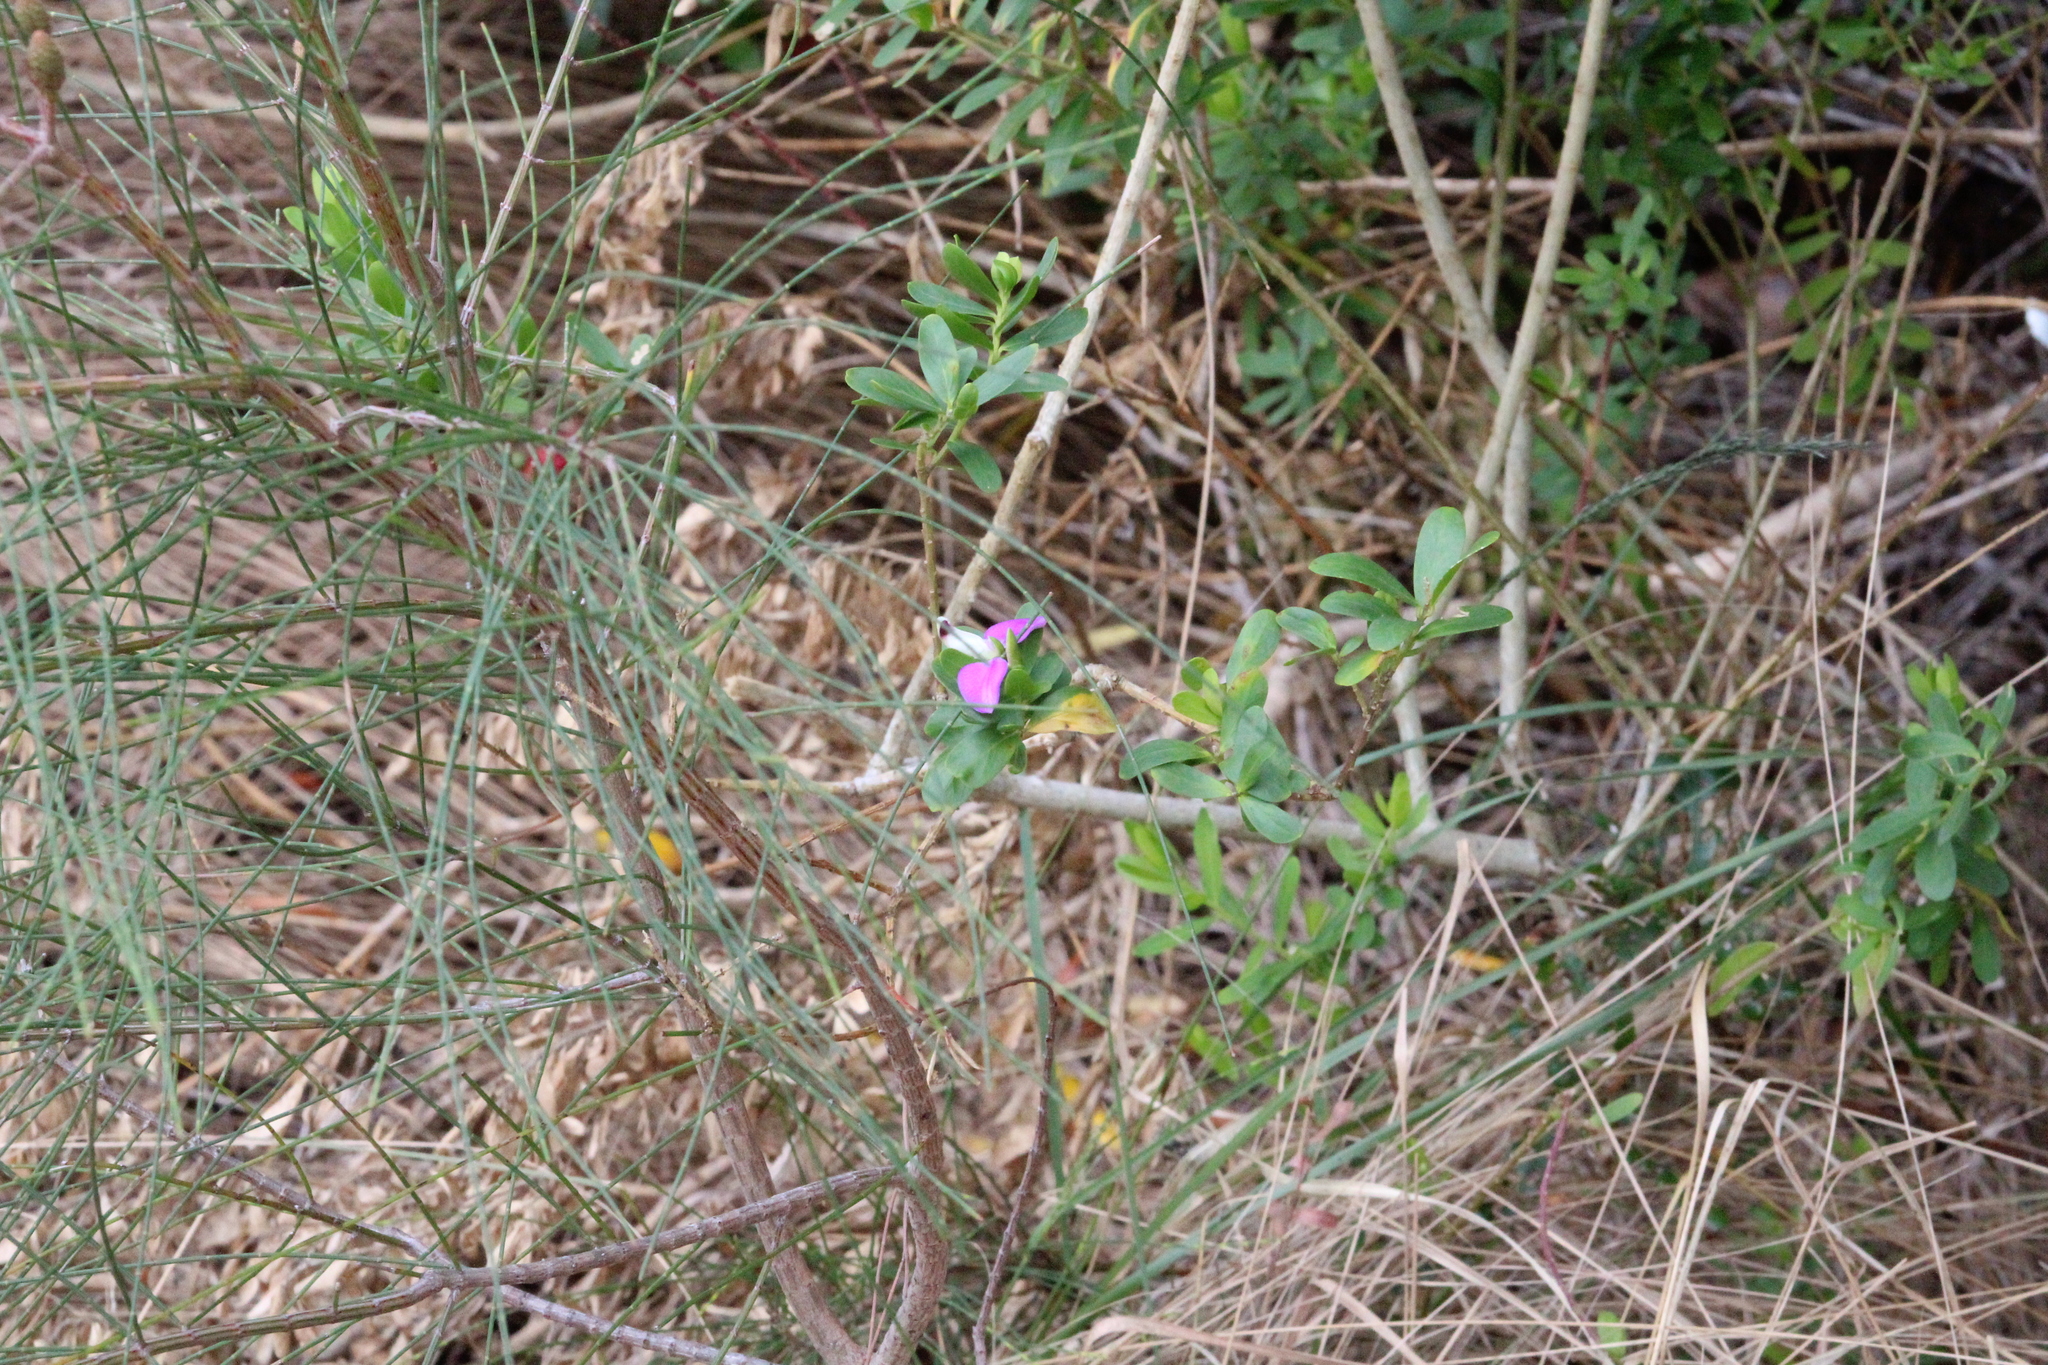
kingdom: Plantae
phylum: Tracheophyta
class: Magnoliopsida
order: Fabales
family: Polygalaceae
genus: Polygala
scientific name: Polygala myrtifolia
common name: Myrtle-leaf milkwort
